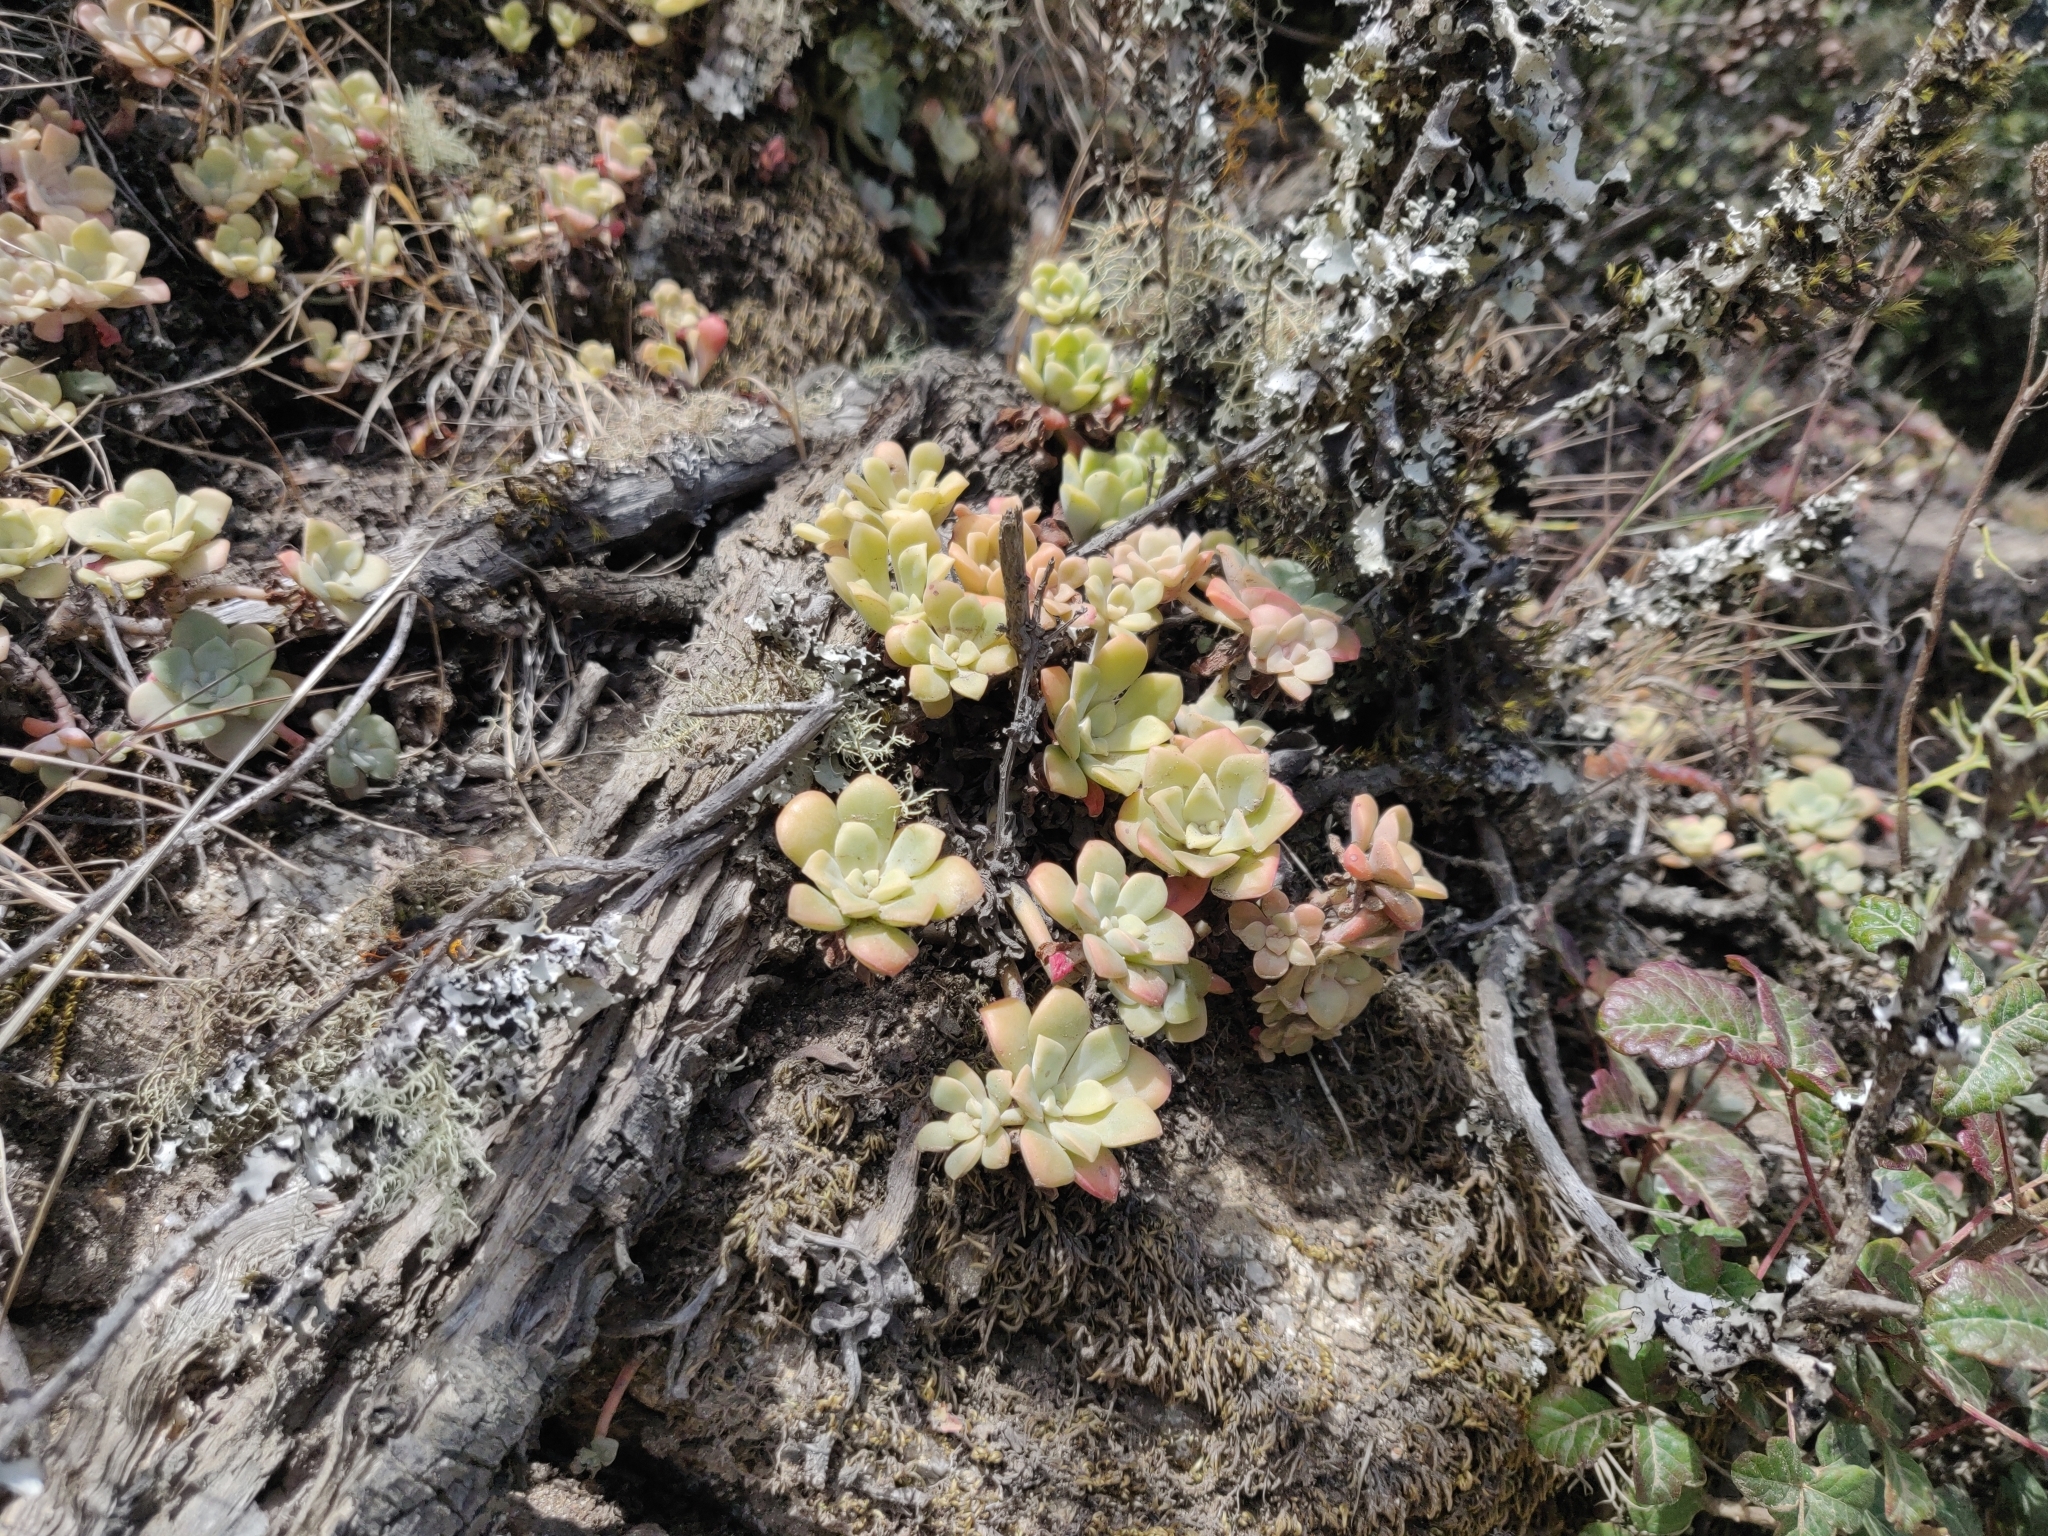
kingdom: Plantae
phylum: Tracheophyta
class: Magnoliopsida
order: Saxifragales
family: Crassulaceae
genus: Sedum
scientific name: Sedum spathulifolium
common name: Colorado stonecrop
